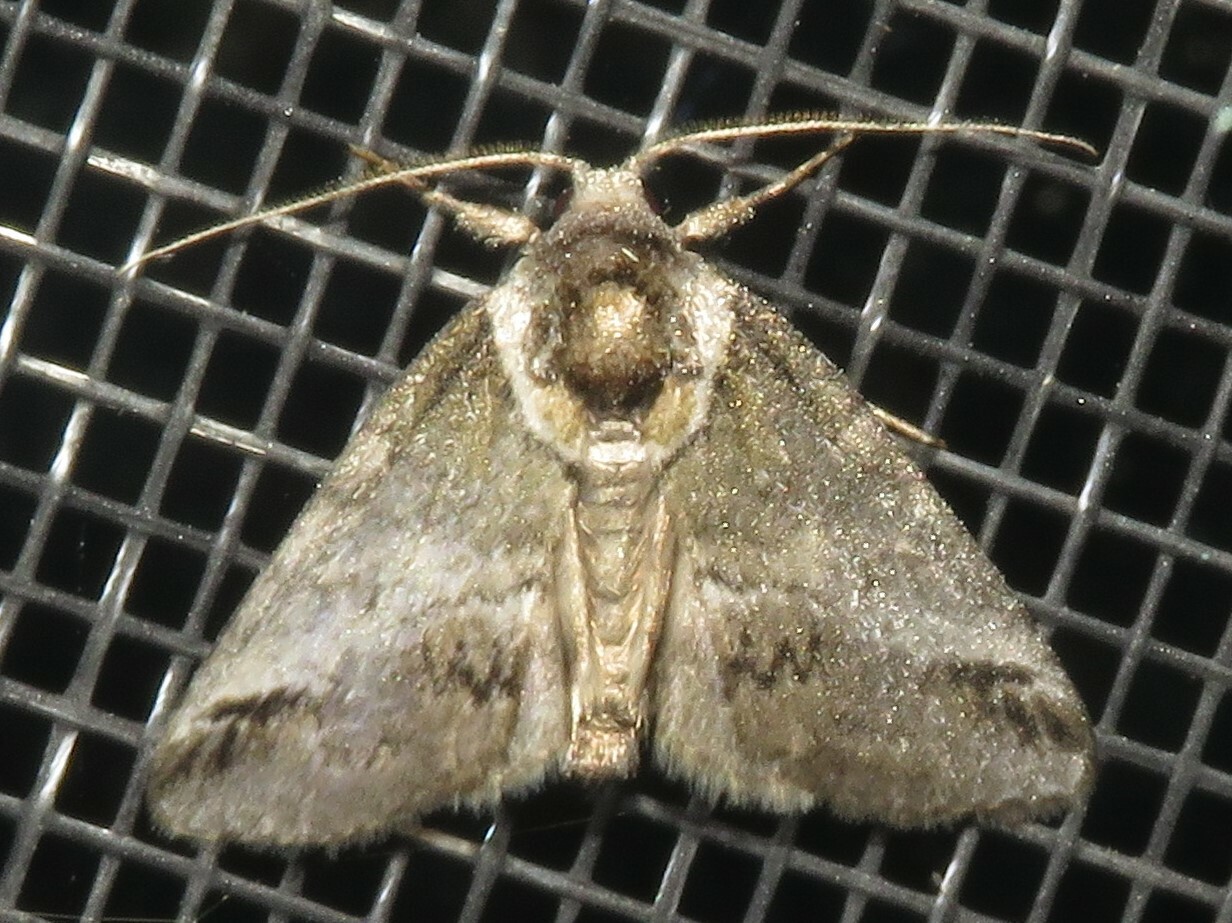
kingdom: Animalia
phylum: Arthropoda
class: Insecta
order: Lepidoptera
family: Nolidae
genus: Baileya
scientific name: Baileya australis
